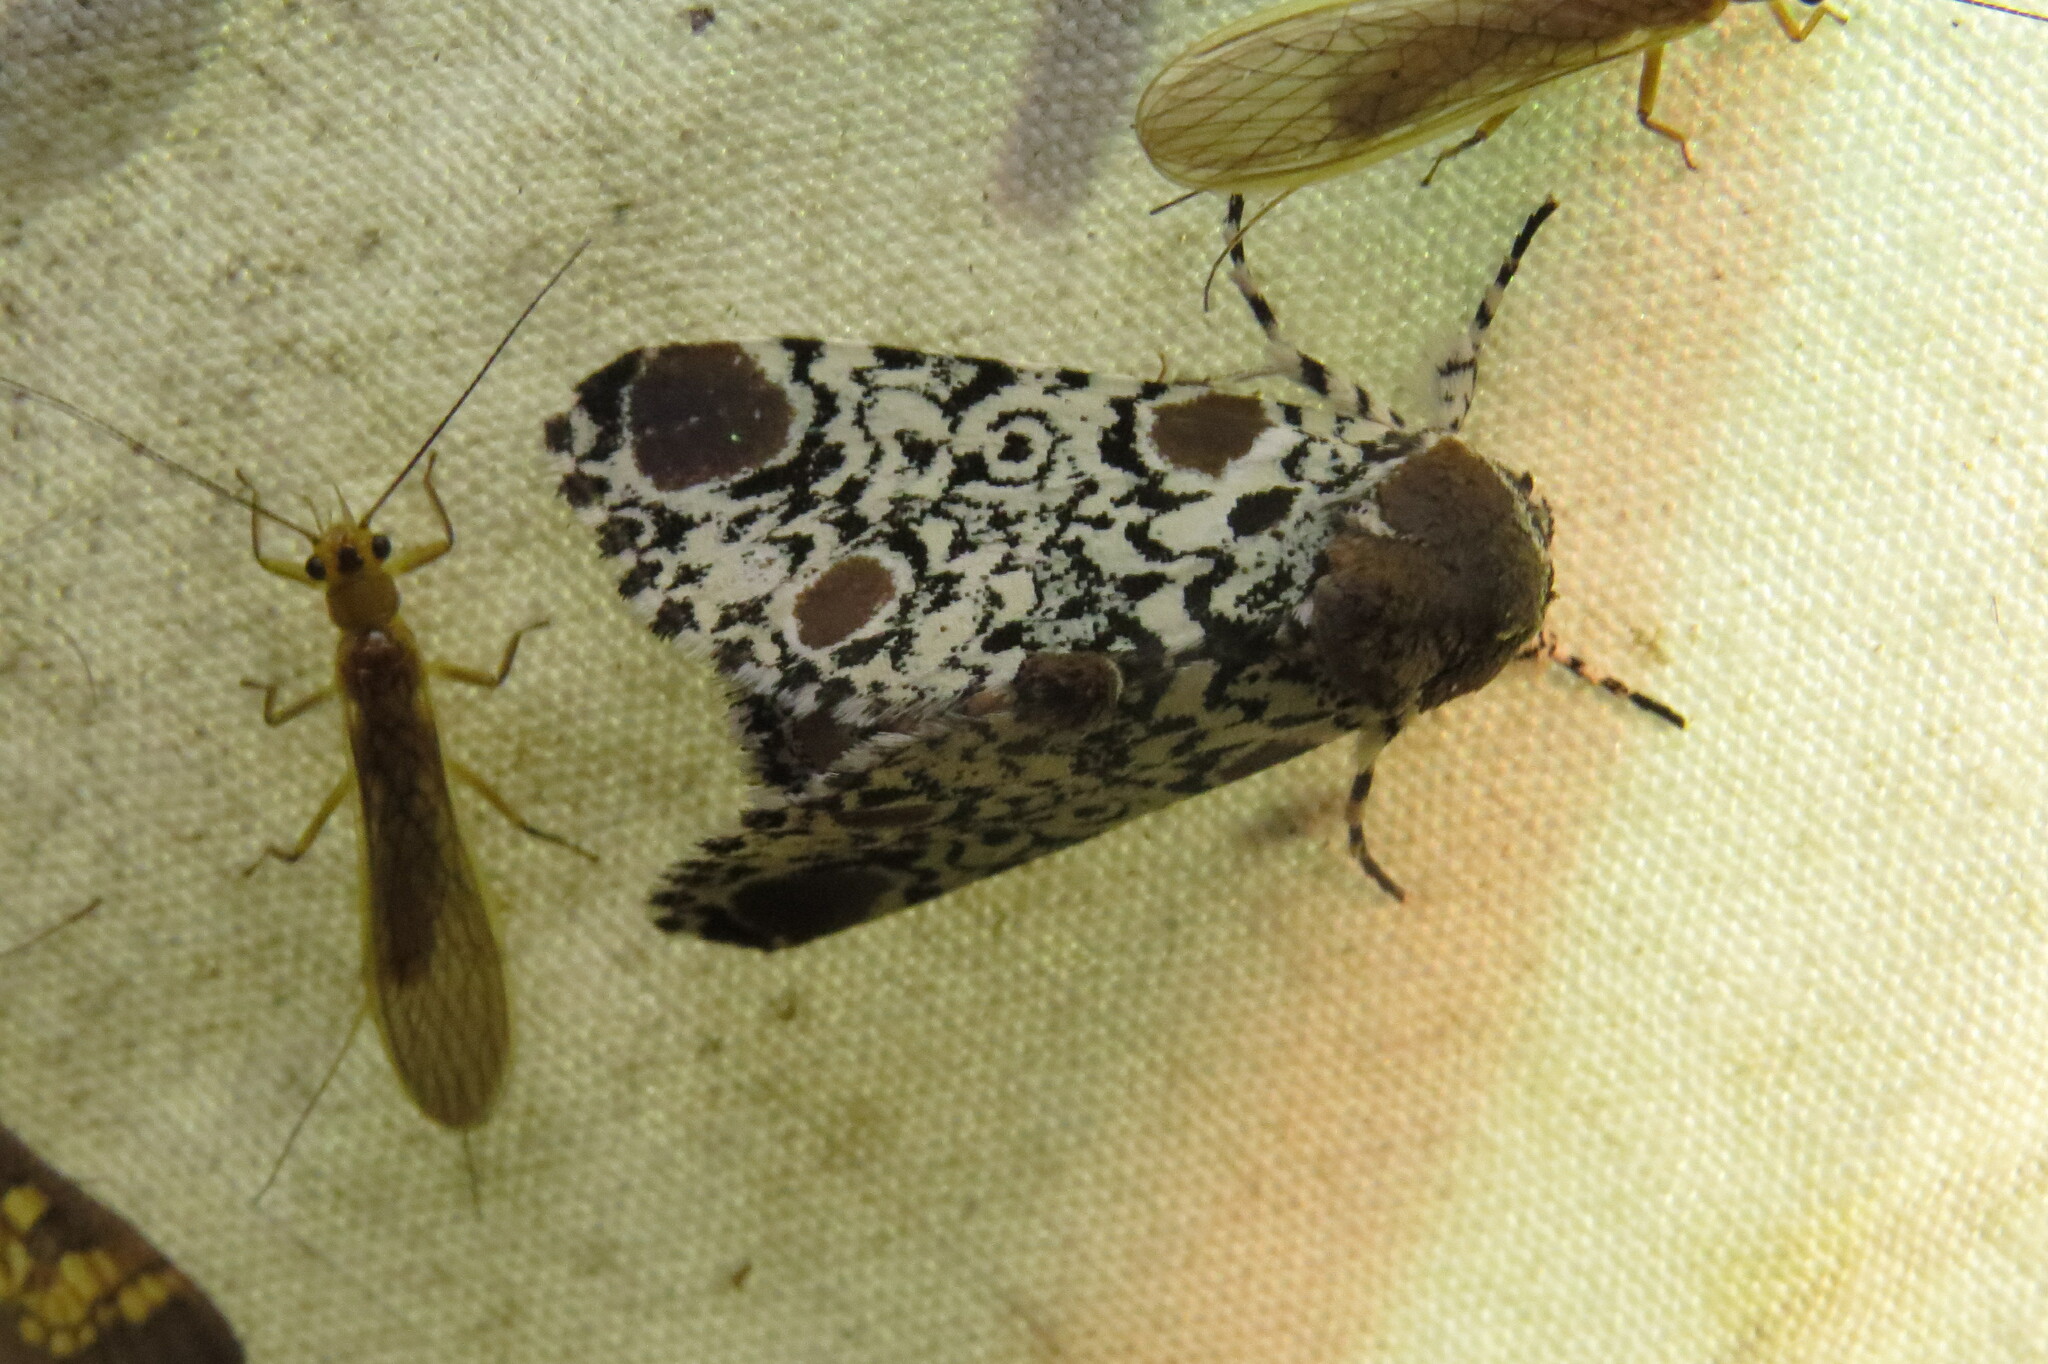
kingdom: Animalia
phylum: Arthropoda
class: Insecta
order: Lepidoptera
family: Noctuidae
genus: Harrisimemna
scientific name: Harrisimemna trisignata
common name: Harris threespot
